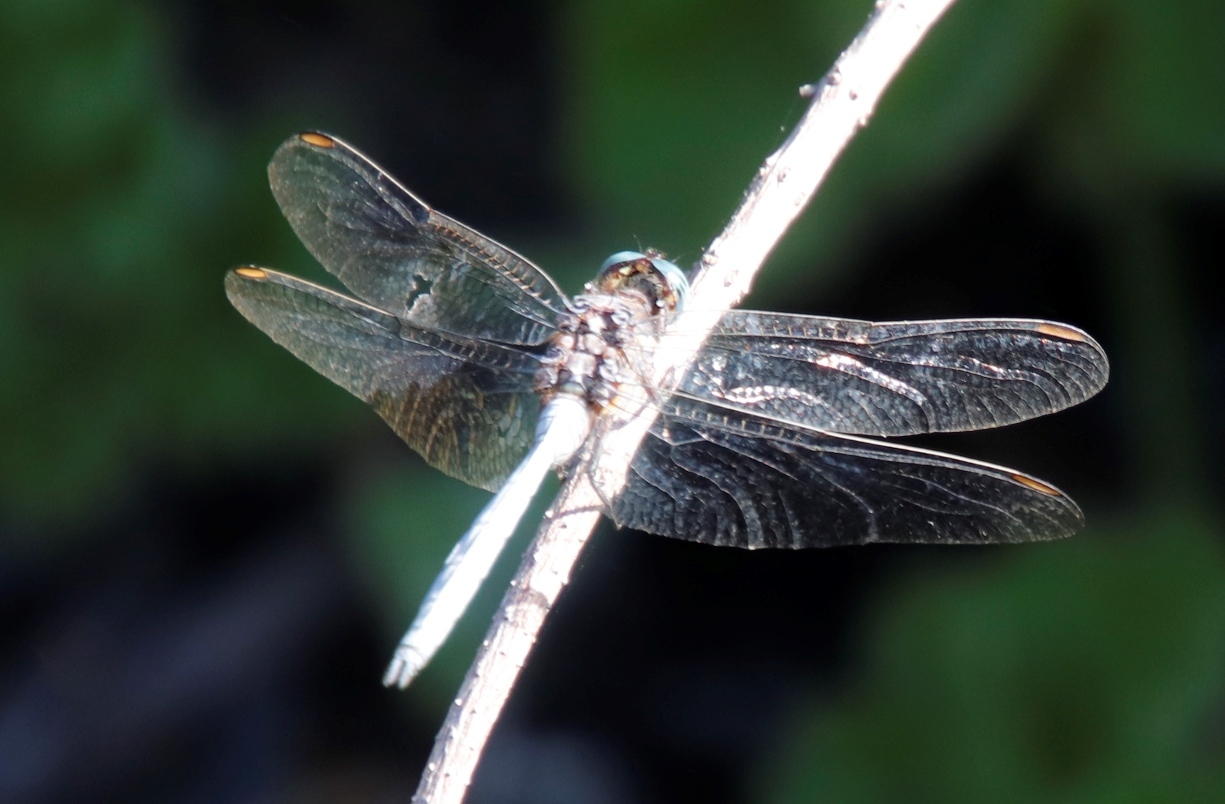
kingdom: Animalia
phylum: Arthropoda
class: Insecta
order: Odonata
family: Libellulidae
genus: Orthetrum
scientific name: Orthetrum julia
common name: Julia skimmer
